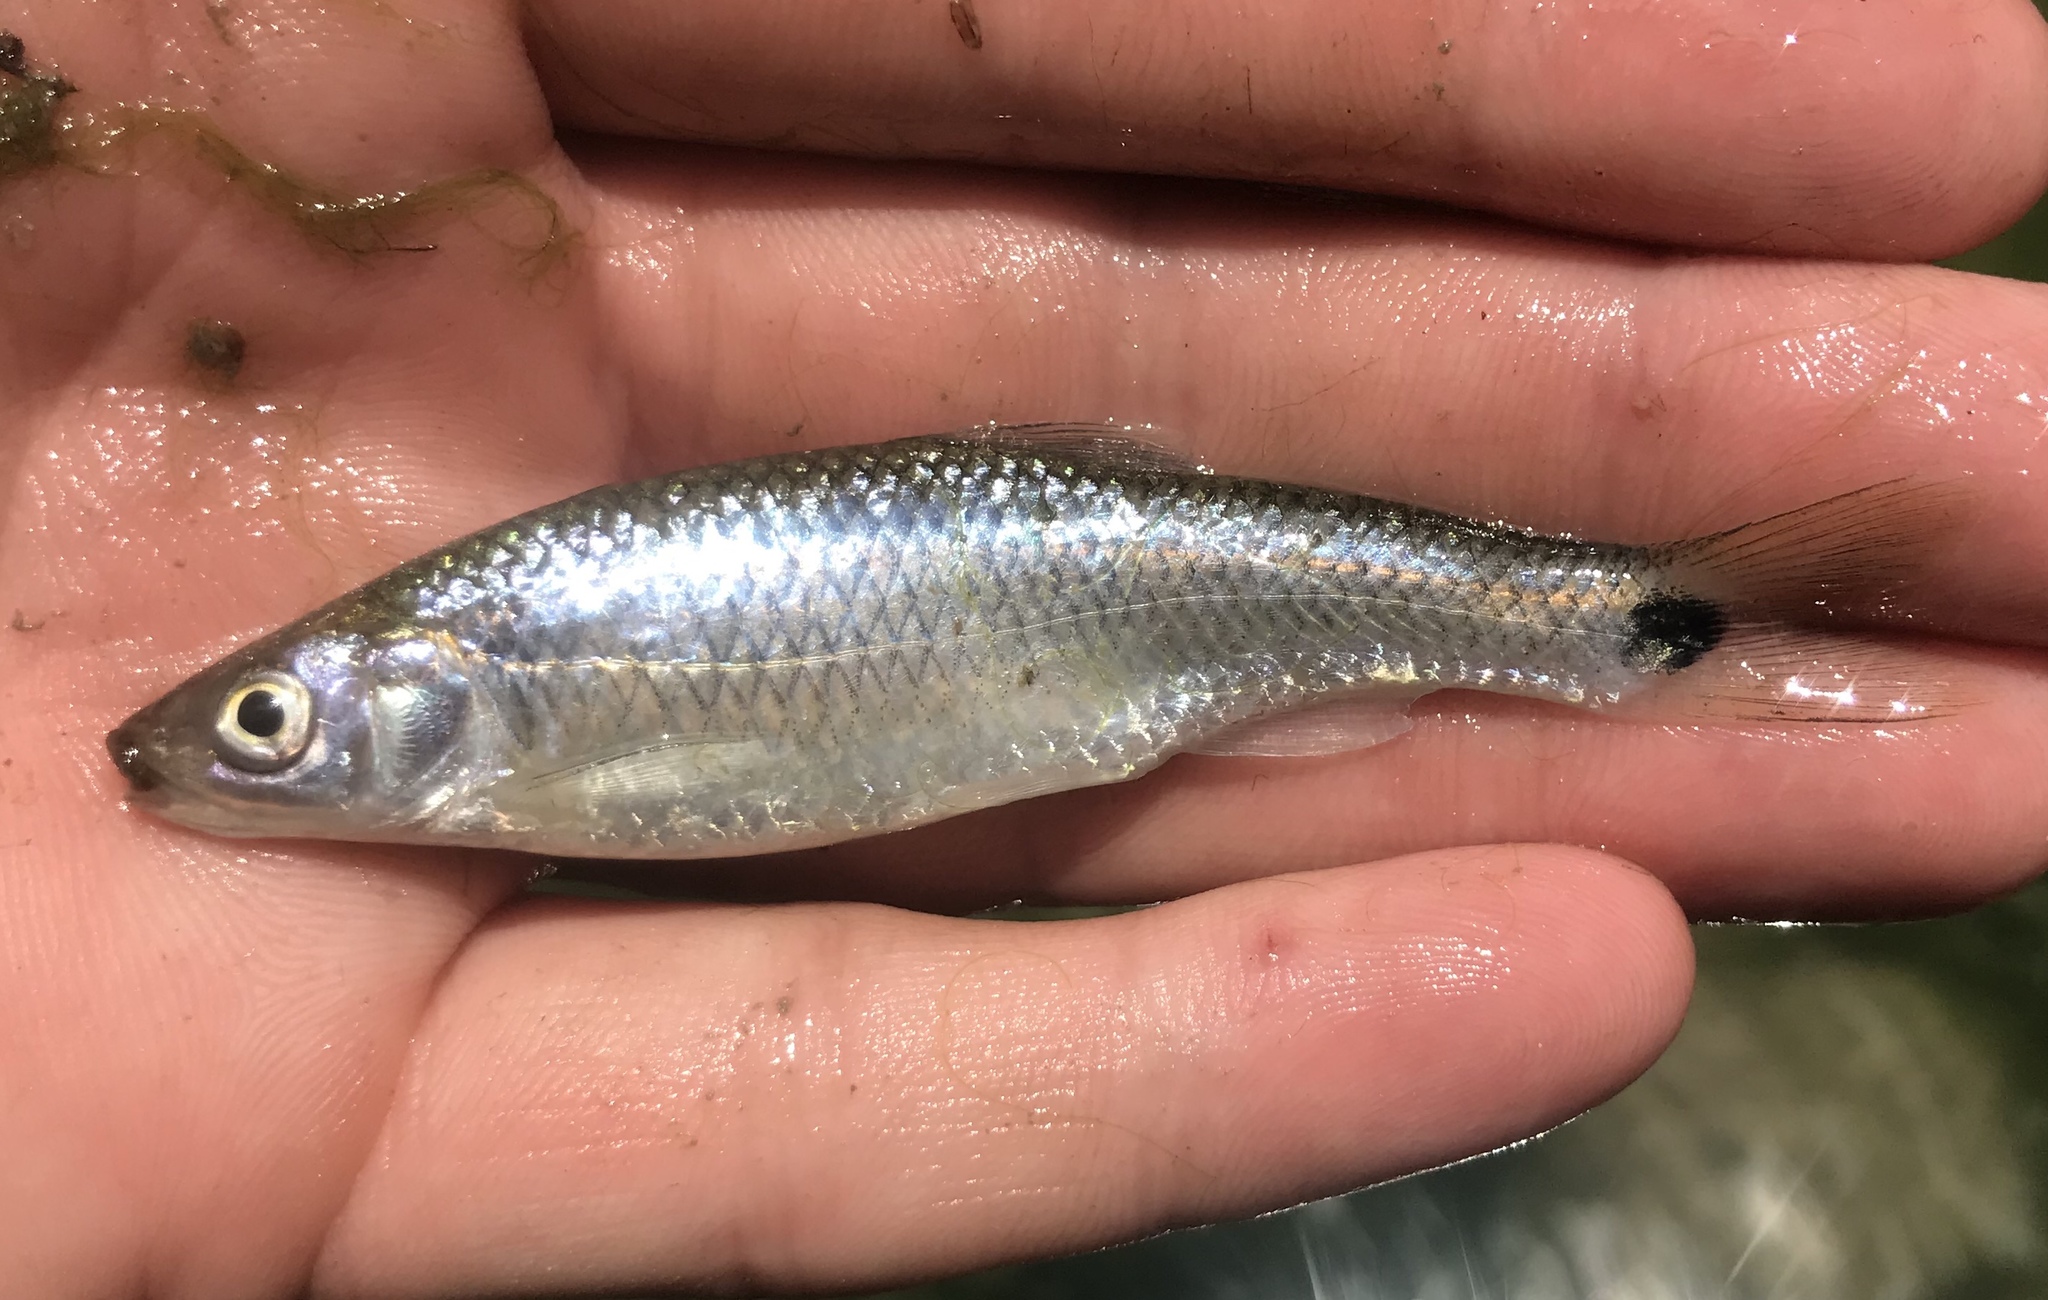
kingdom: Animalia
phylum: Chordata
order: Cypriniformes
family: Cyprinidae
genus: Cyprinella
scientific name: Cyprinella venusta
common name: Blacktail shiner
